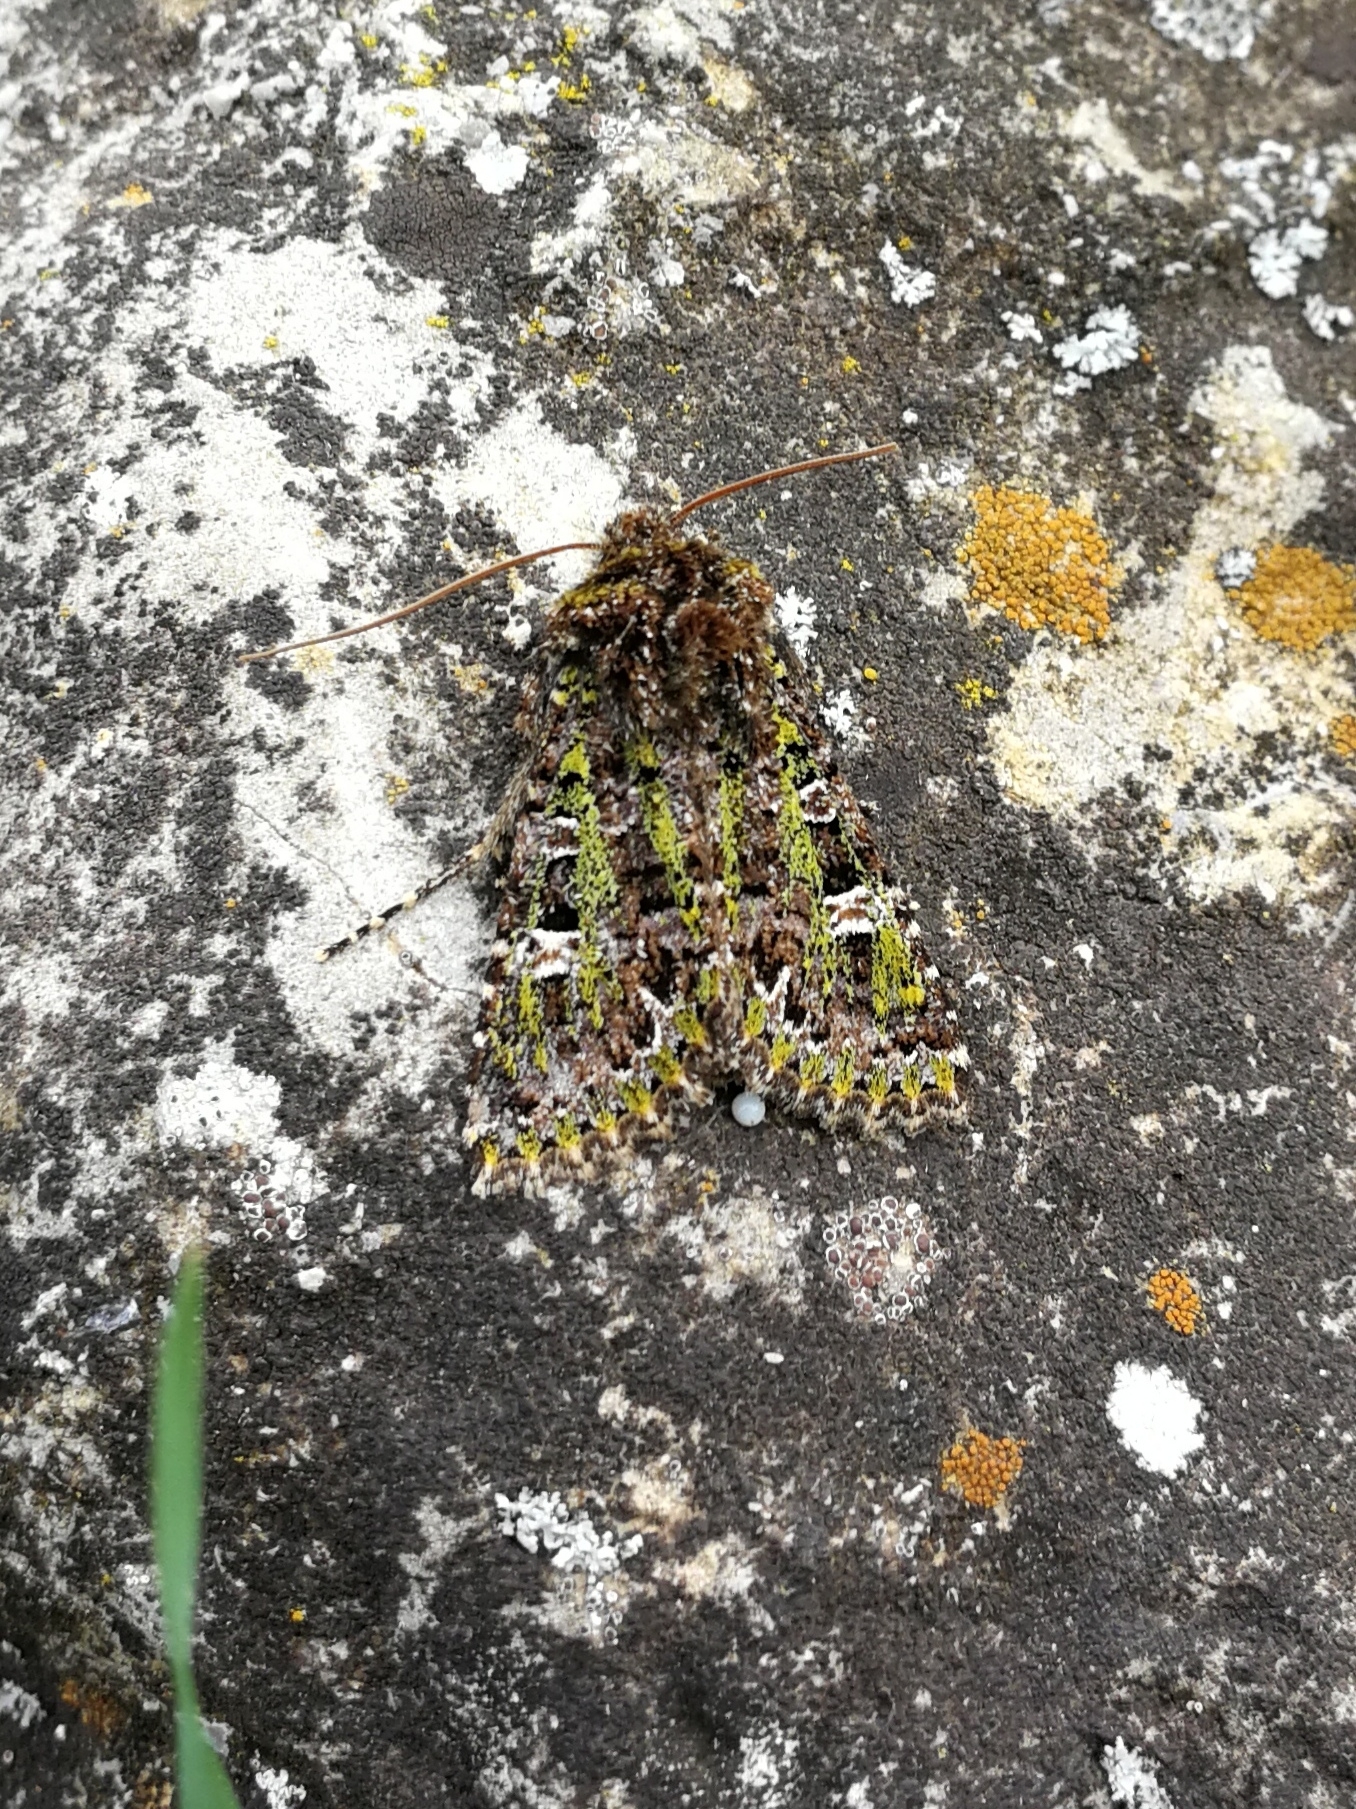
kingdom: Animalia
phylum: Arthropoda
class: Insecta
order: Lepidoptera
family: Noctuidae
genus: Valeria
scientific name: Valeria jaspidea
